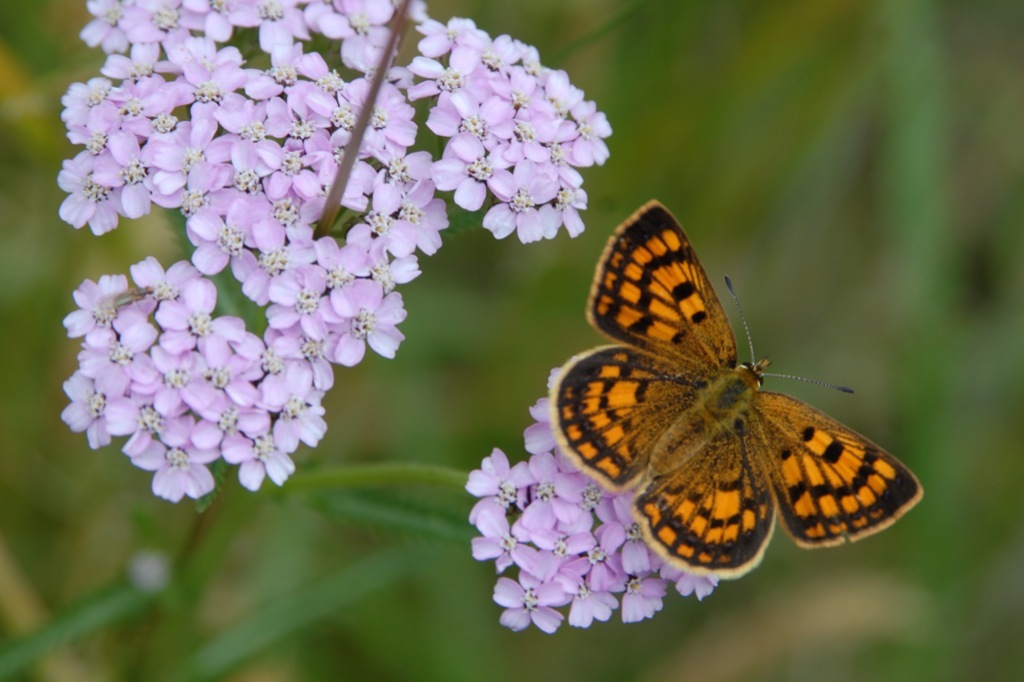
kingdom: Animalia
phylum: Arthropoda
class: Insecta
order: Lepidoptera
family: Lycaenidae
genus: Lycaena
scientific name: Lycaena salustius
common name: North island coastal copper
